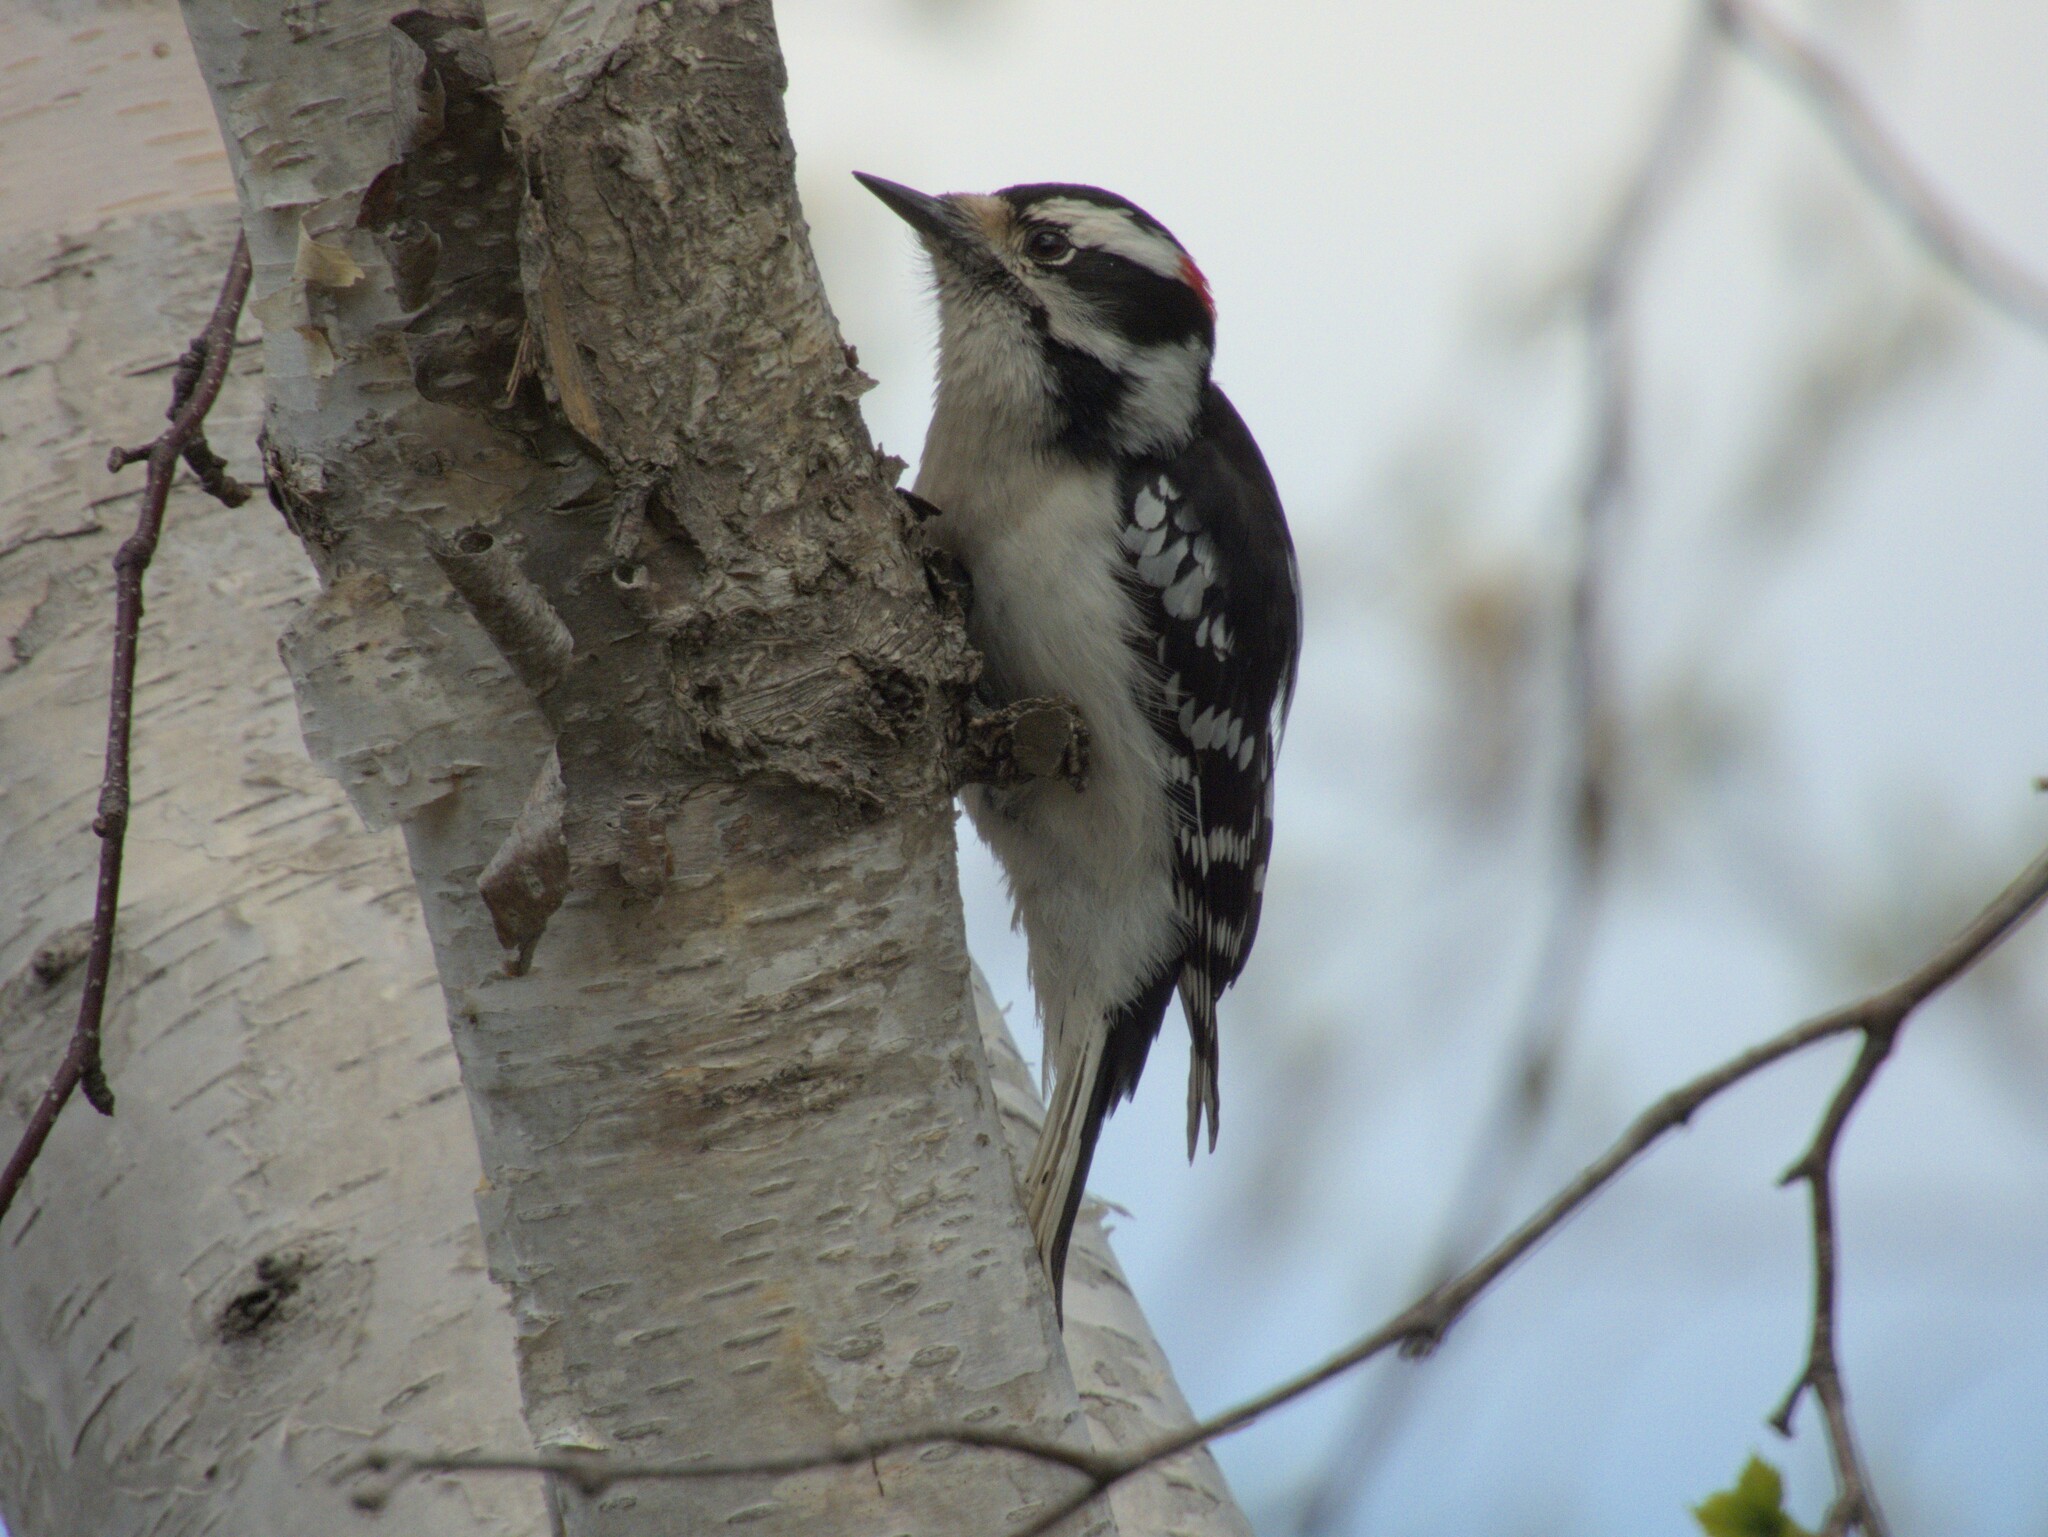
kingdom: Animalia
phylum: Chordata
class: Aves
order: Piciformes
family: Picidae
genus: Dryobates
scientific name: Dryobates pubescens
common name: Downy woodpecker
